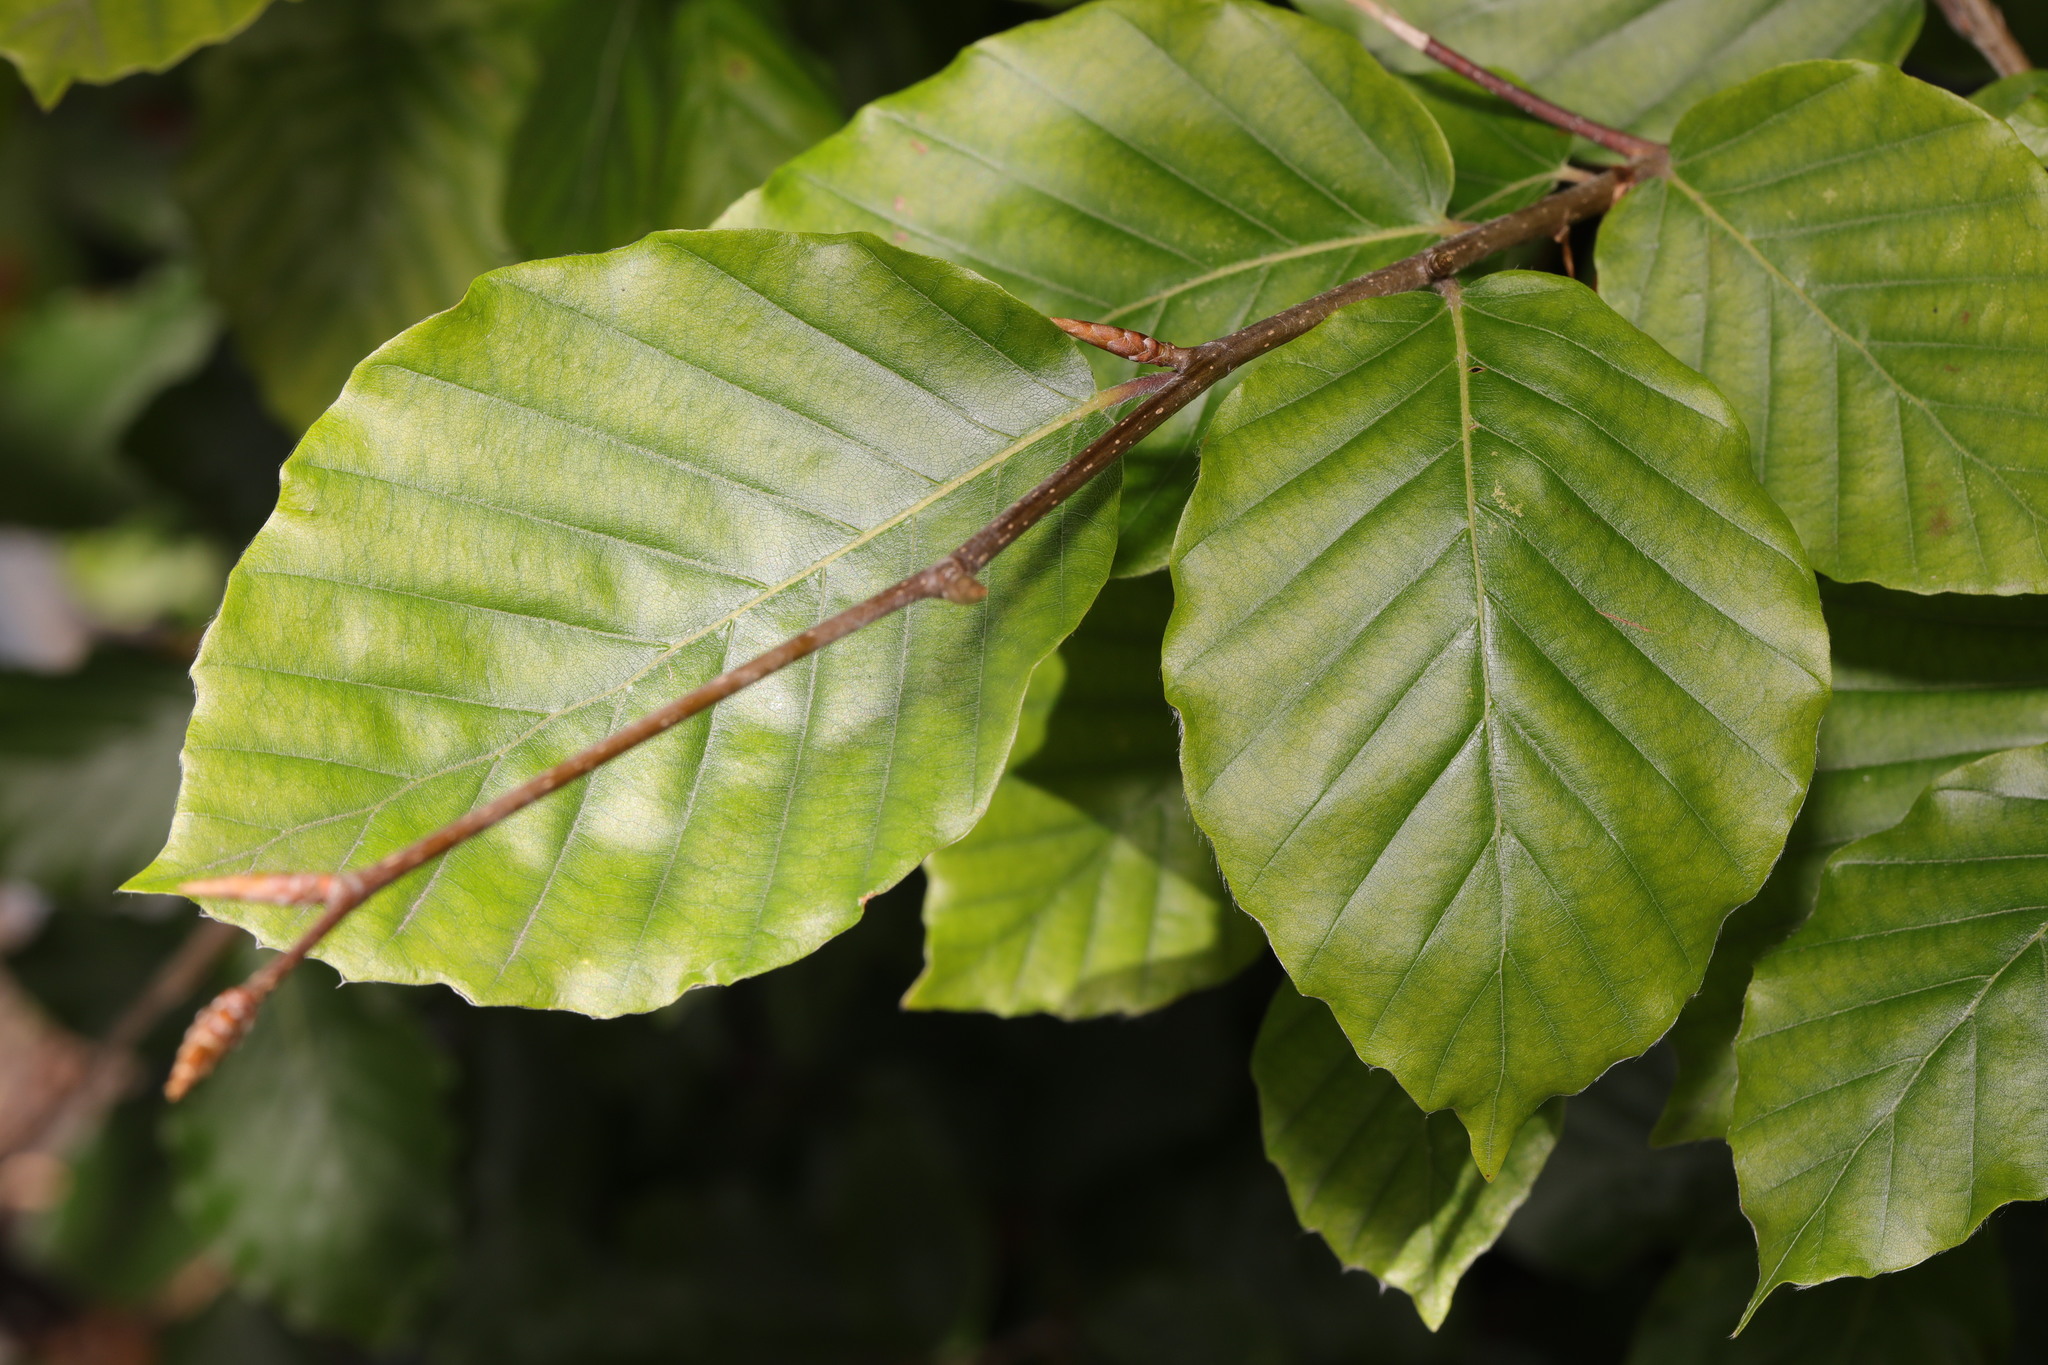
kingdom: Plantae
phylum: Tracheophyta
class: Magnoliopsida
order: Fagales
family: Fagaceae
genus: Fagus
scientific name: Fagus sylvatica
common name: Beech
